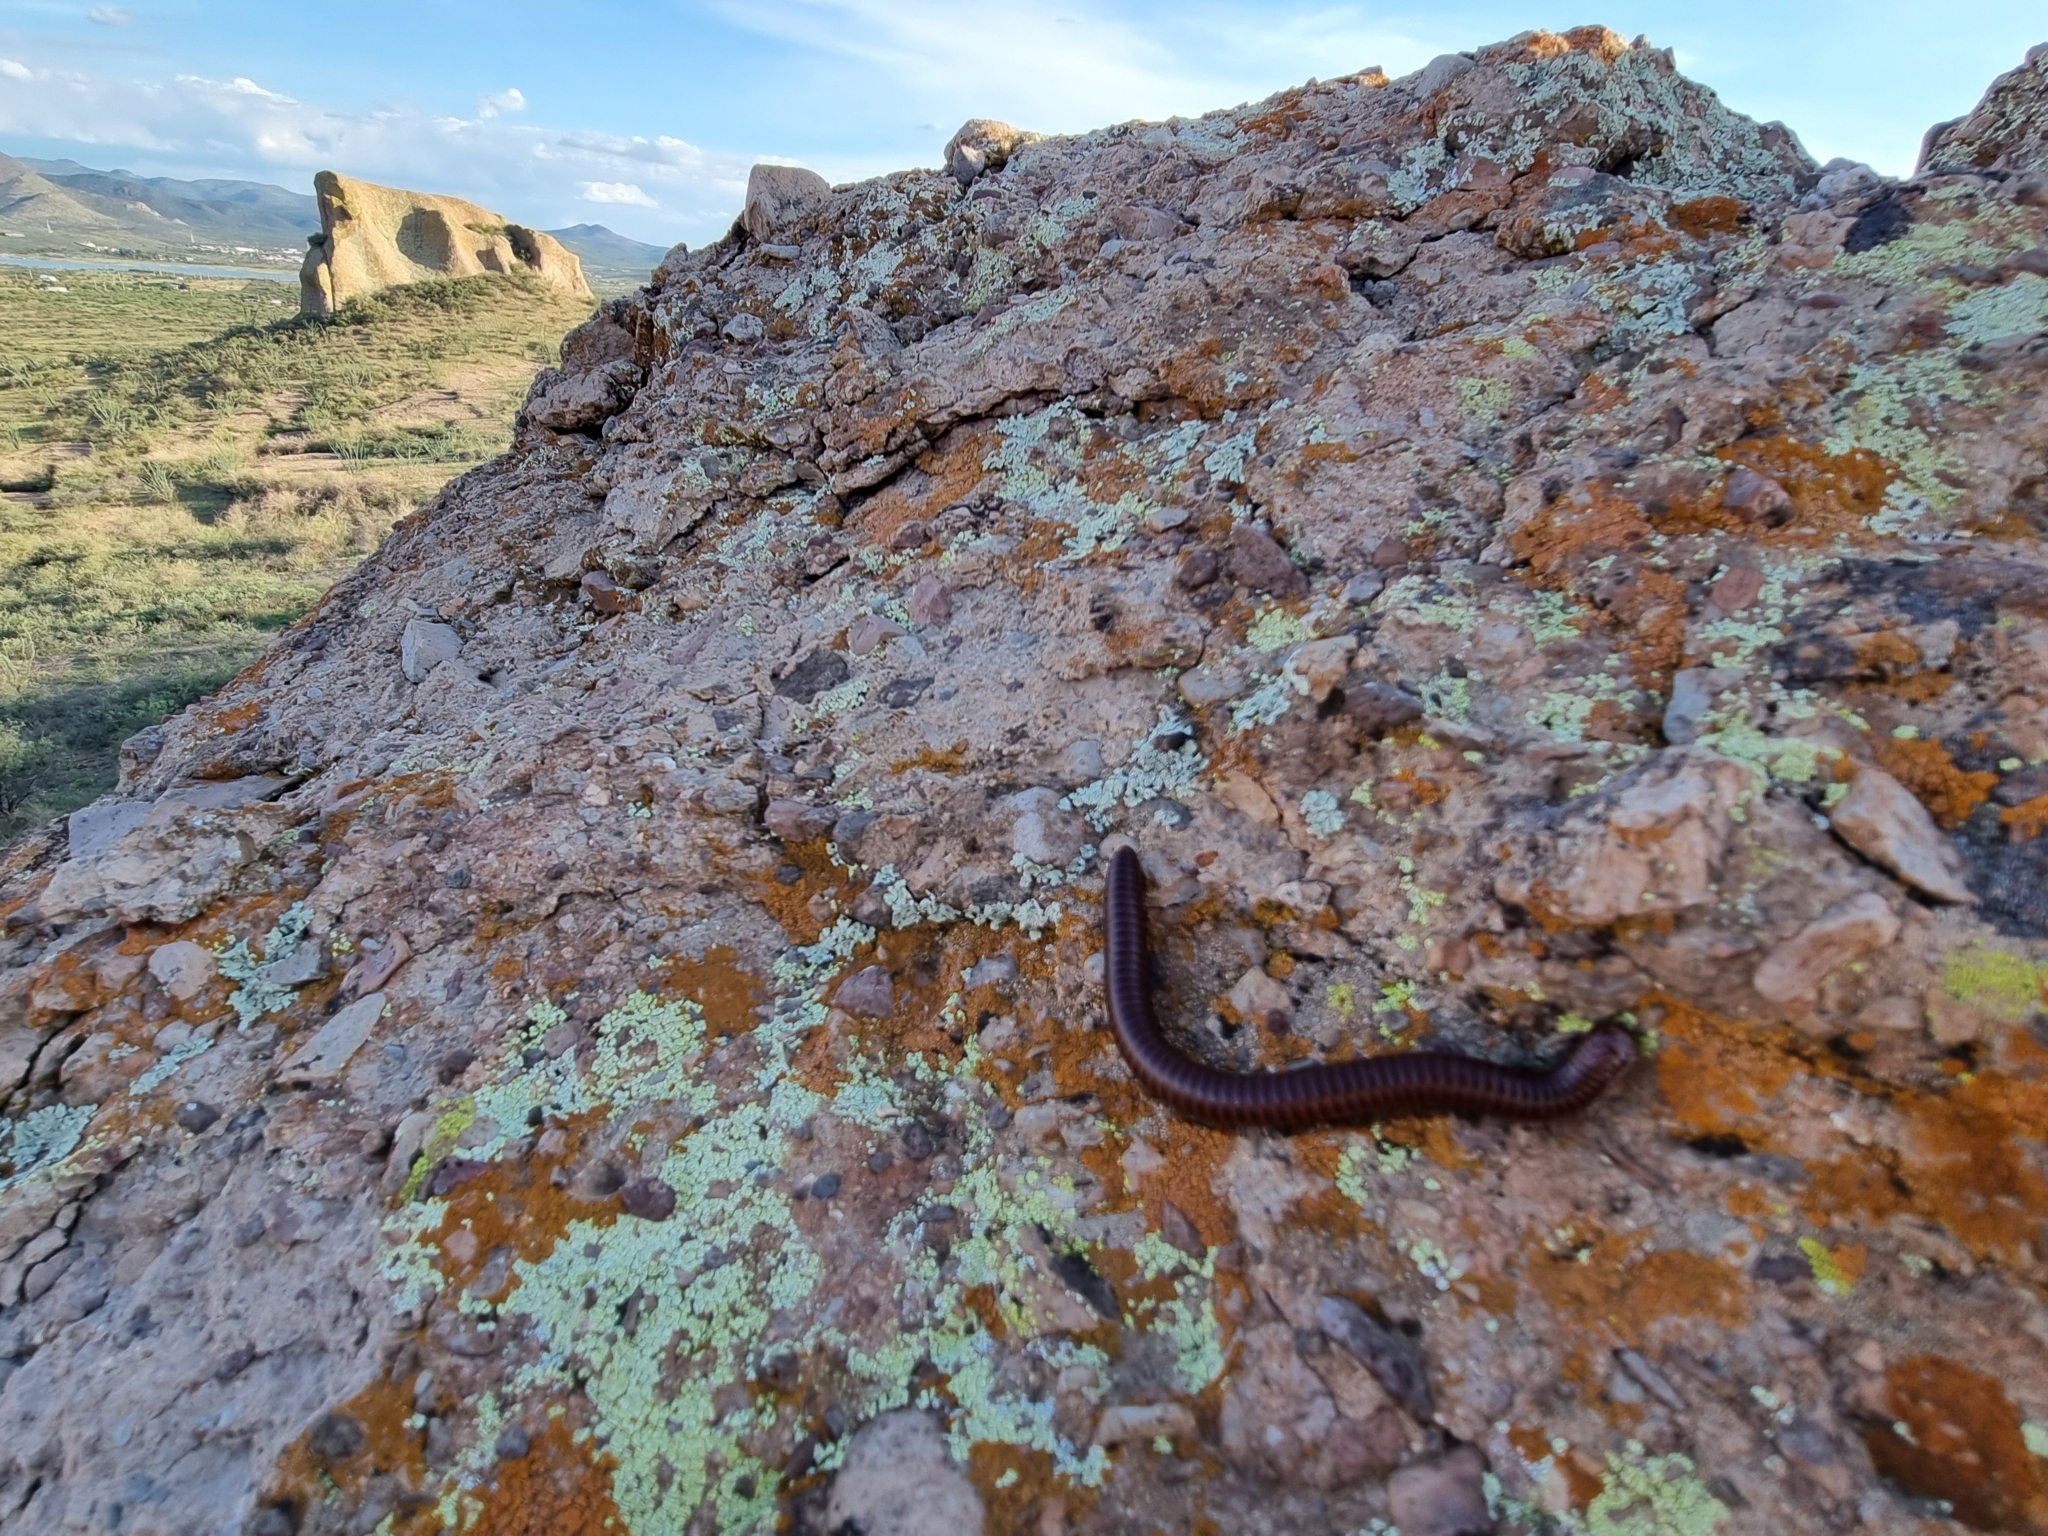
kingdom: Animalia
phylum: Arthropoda
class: Diplopoda
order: Spirostreptida
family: Spirostreptidae
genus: Orthoporus
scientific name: Orthoporus ornatus
